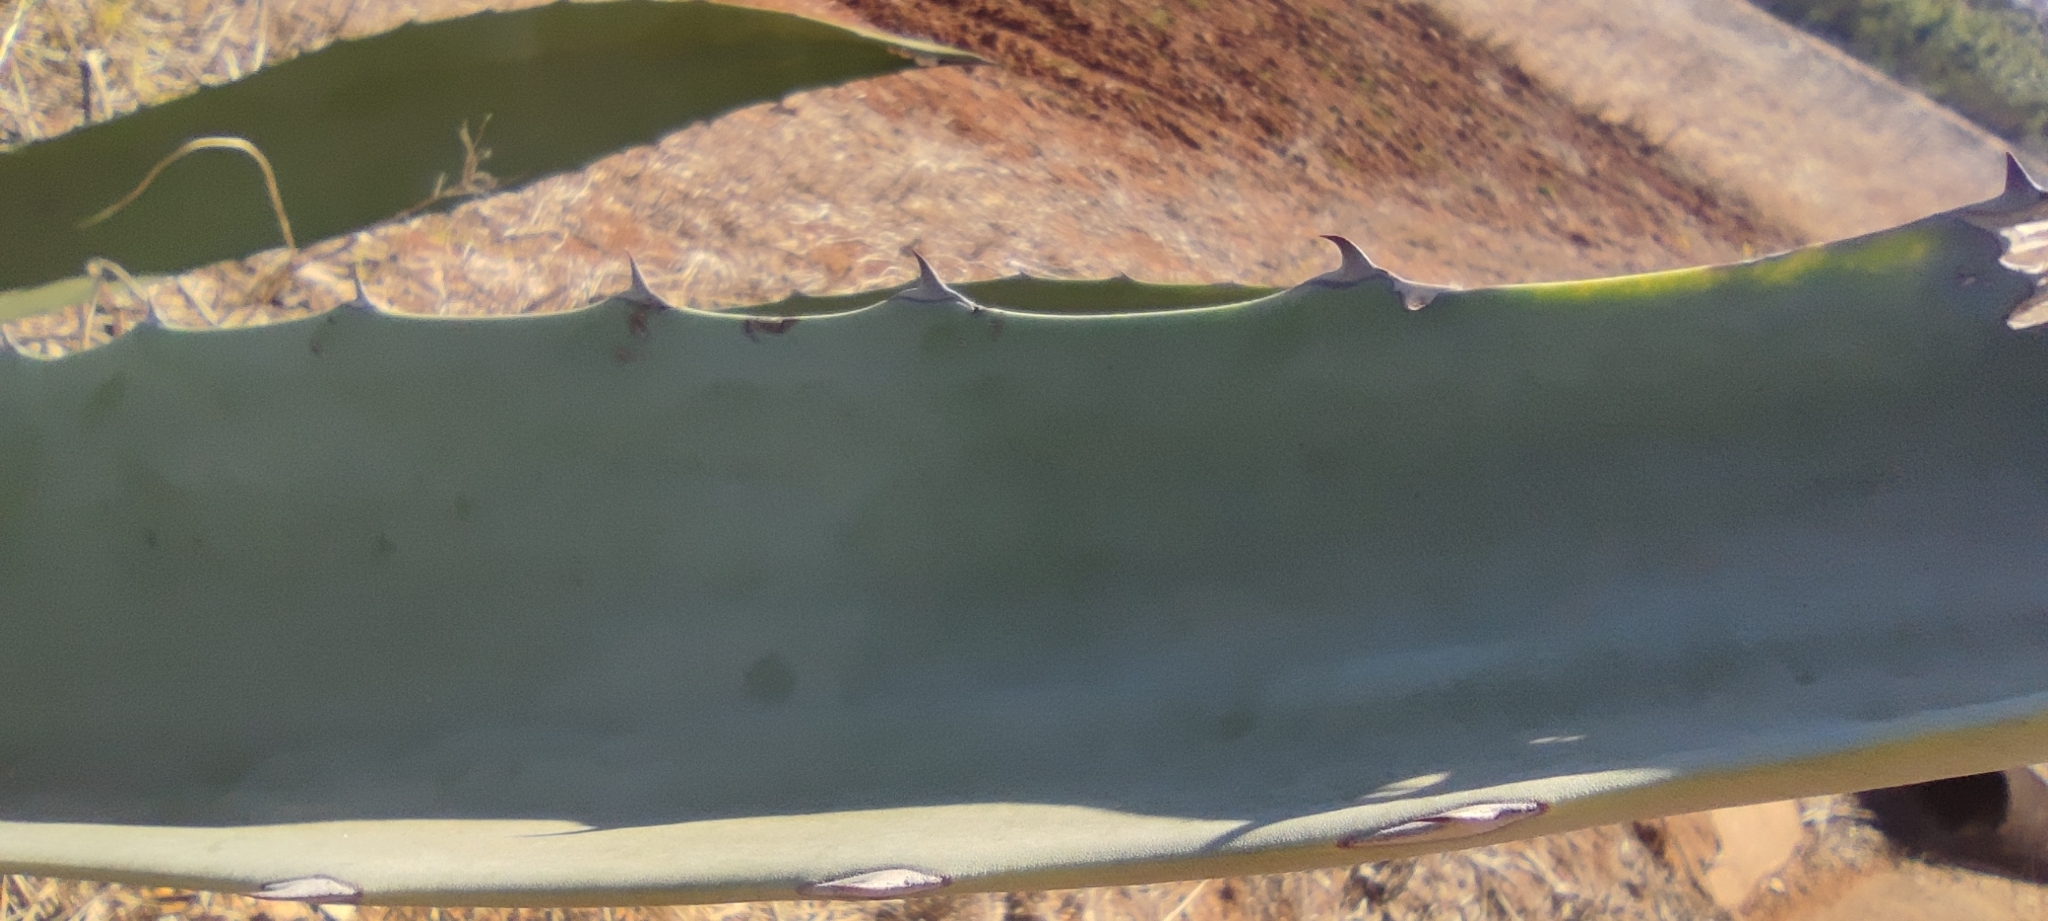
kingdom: Plantae
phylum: Tracheophyta
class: Liliopsida
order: Asparagales
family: Asparagaceae
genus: Agave
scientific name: Agave americana
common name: Centuryplant
